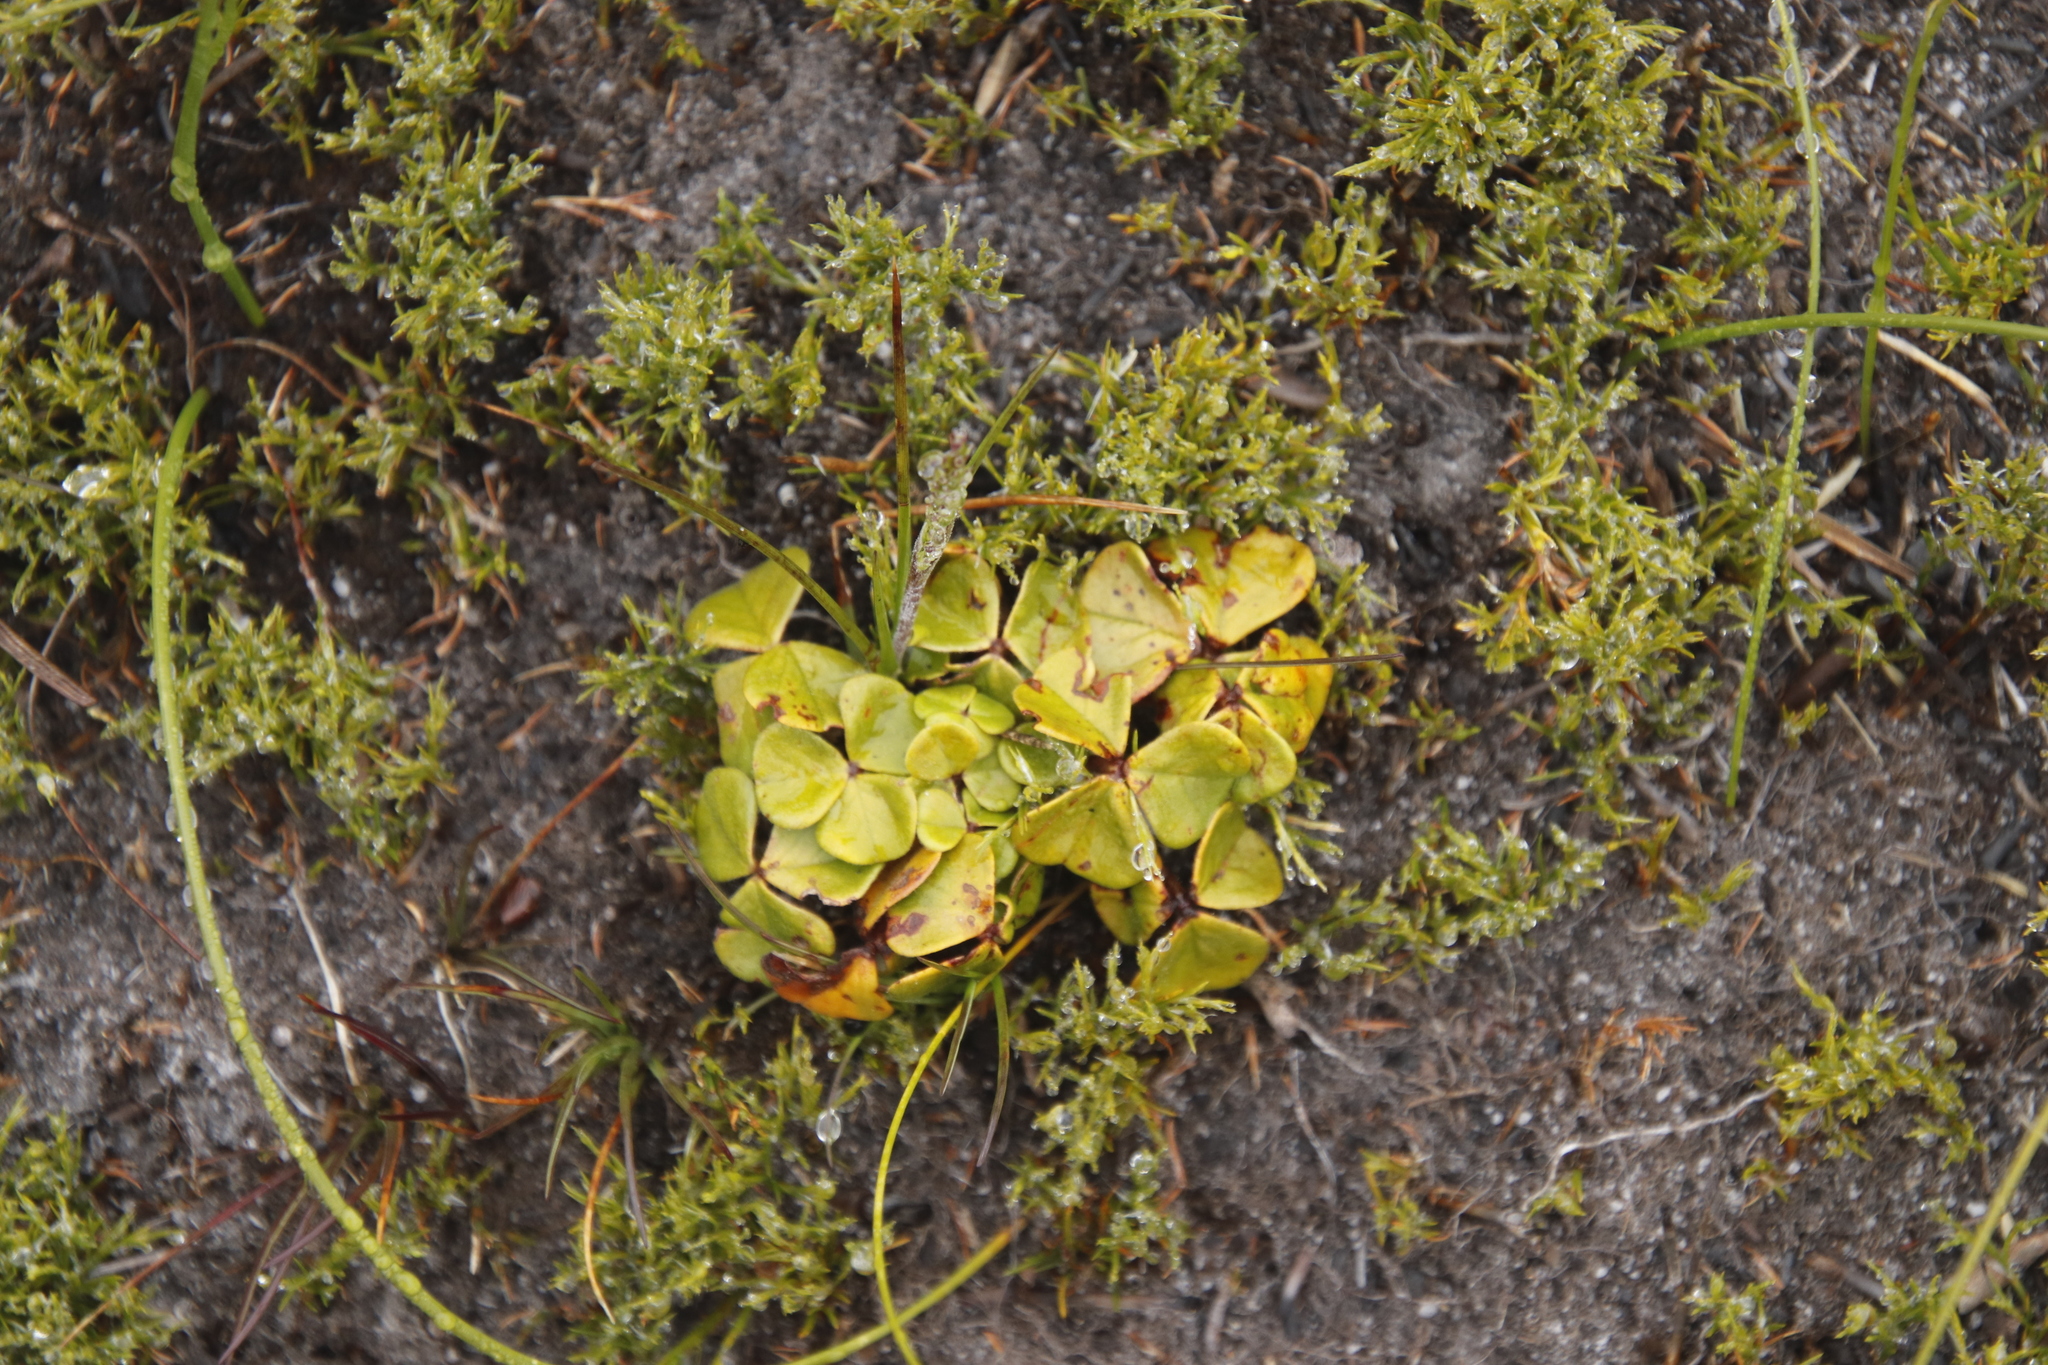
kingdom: Plantae
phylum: Tracheophyta
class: Magnoliopsida
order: Oxalidales
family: Oxalidaceae
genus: Oxalis
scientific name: Oxalis truncatula
